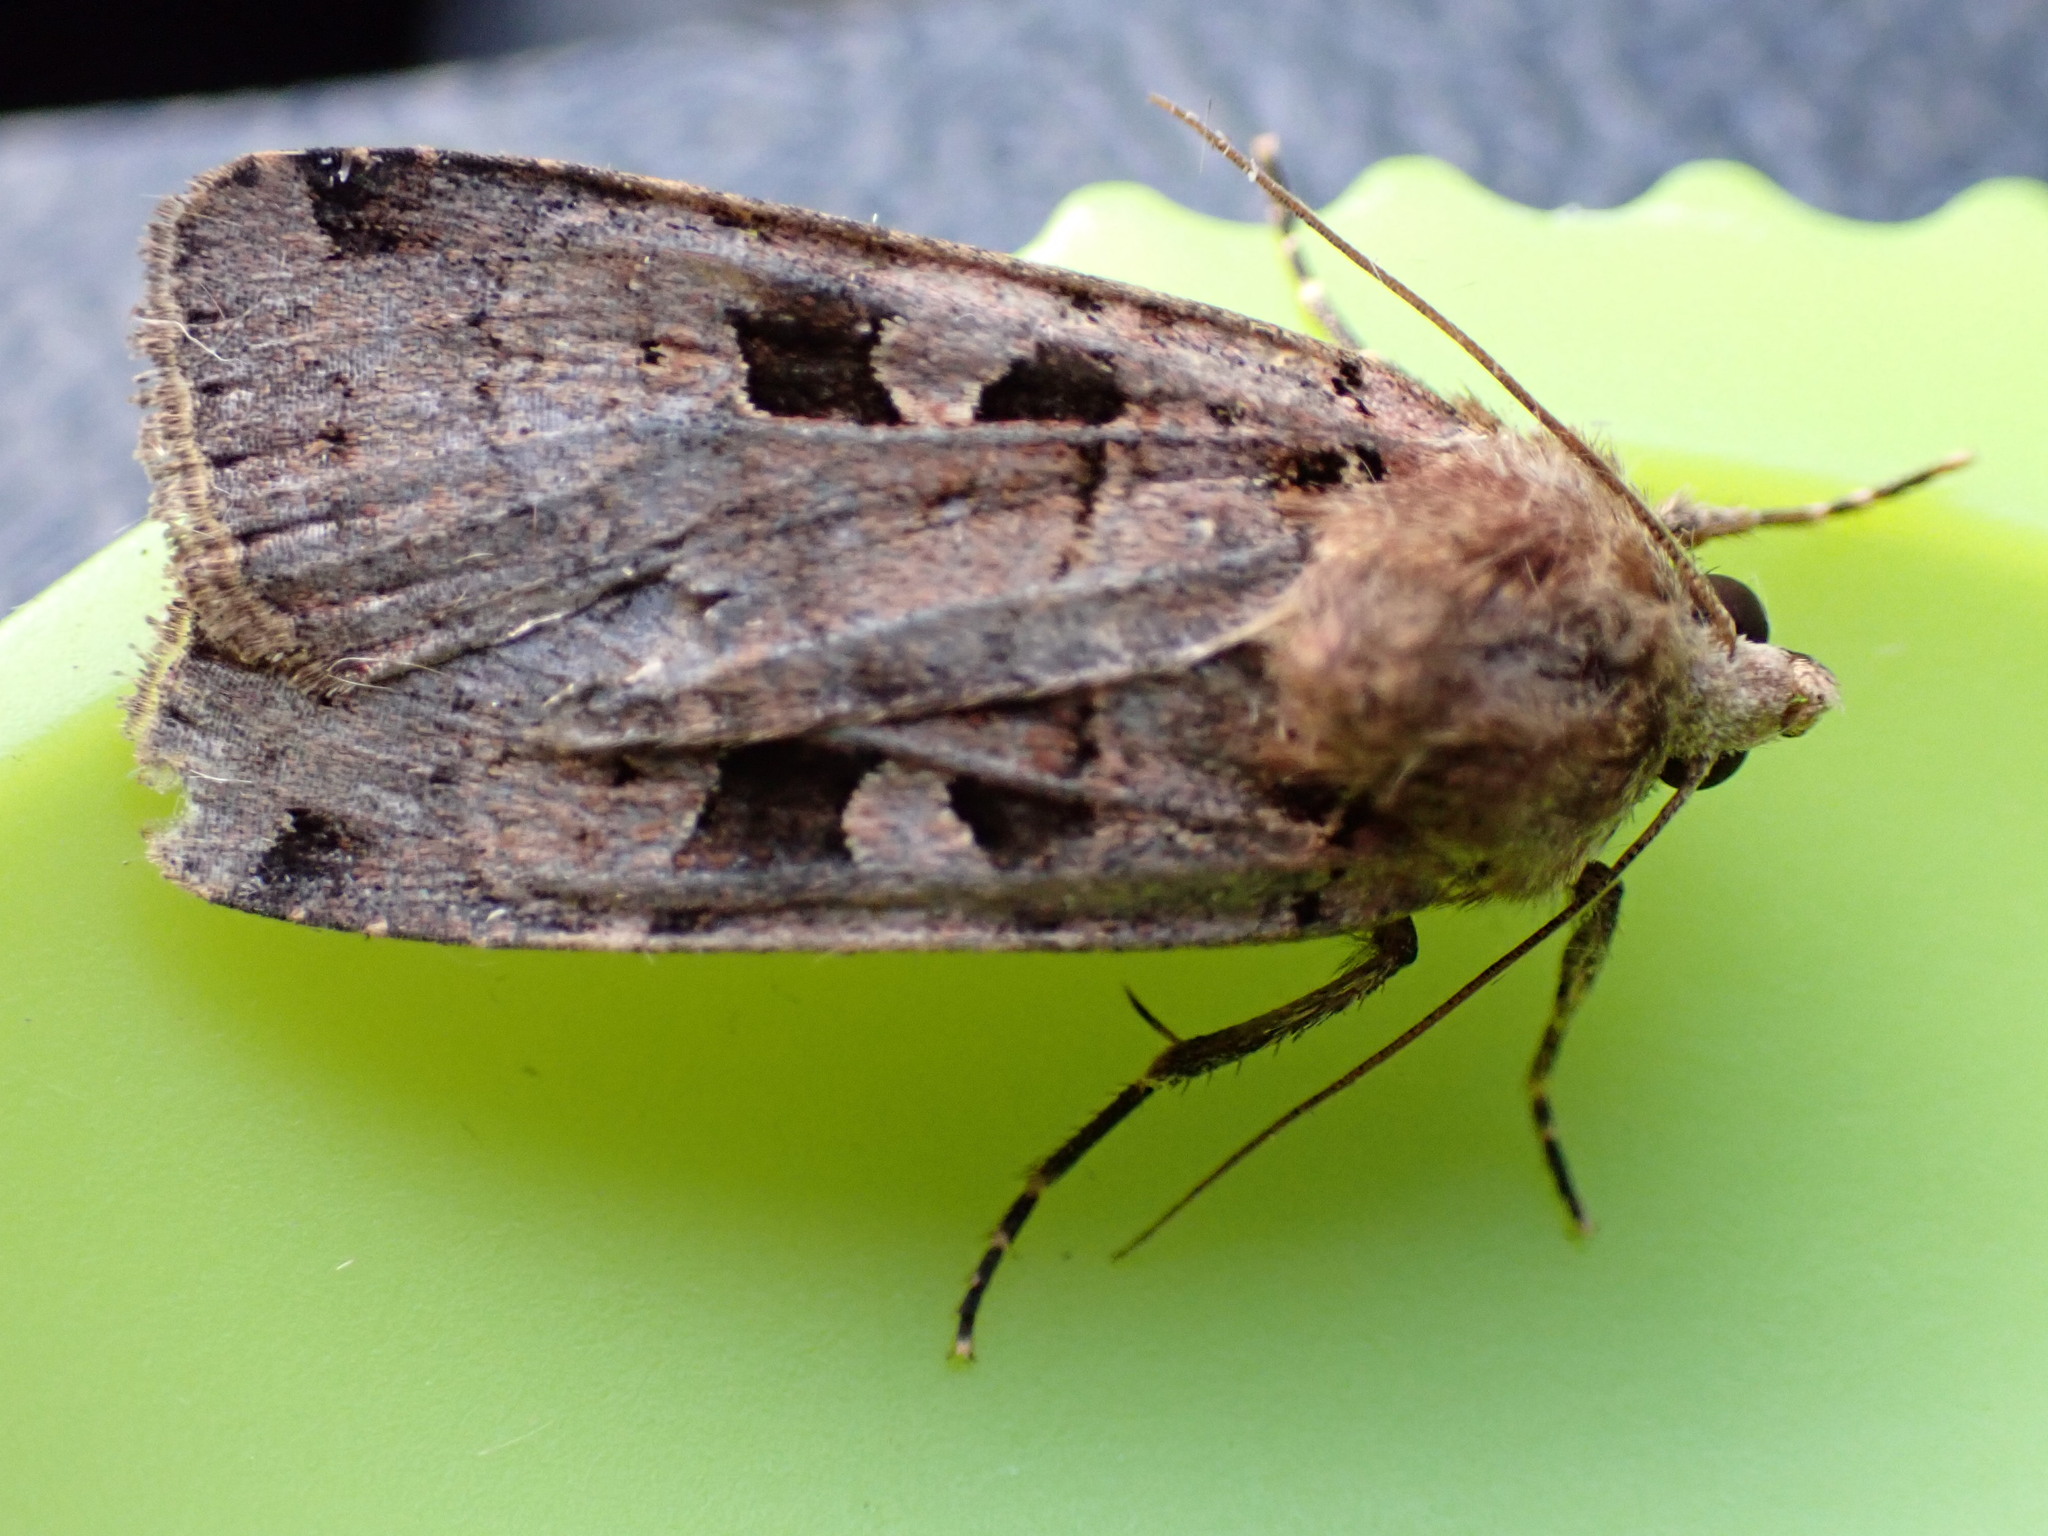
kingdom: Animalia
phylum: Arthropoda
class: Insecta
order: Lepidoptera
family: Noctuidae
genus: Xestia
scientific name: Xestia triangulum
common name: Double square-spot
